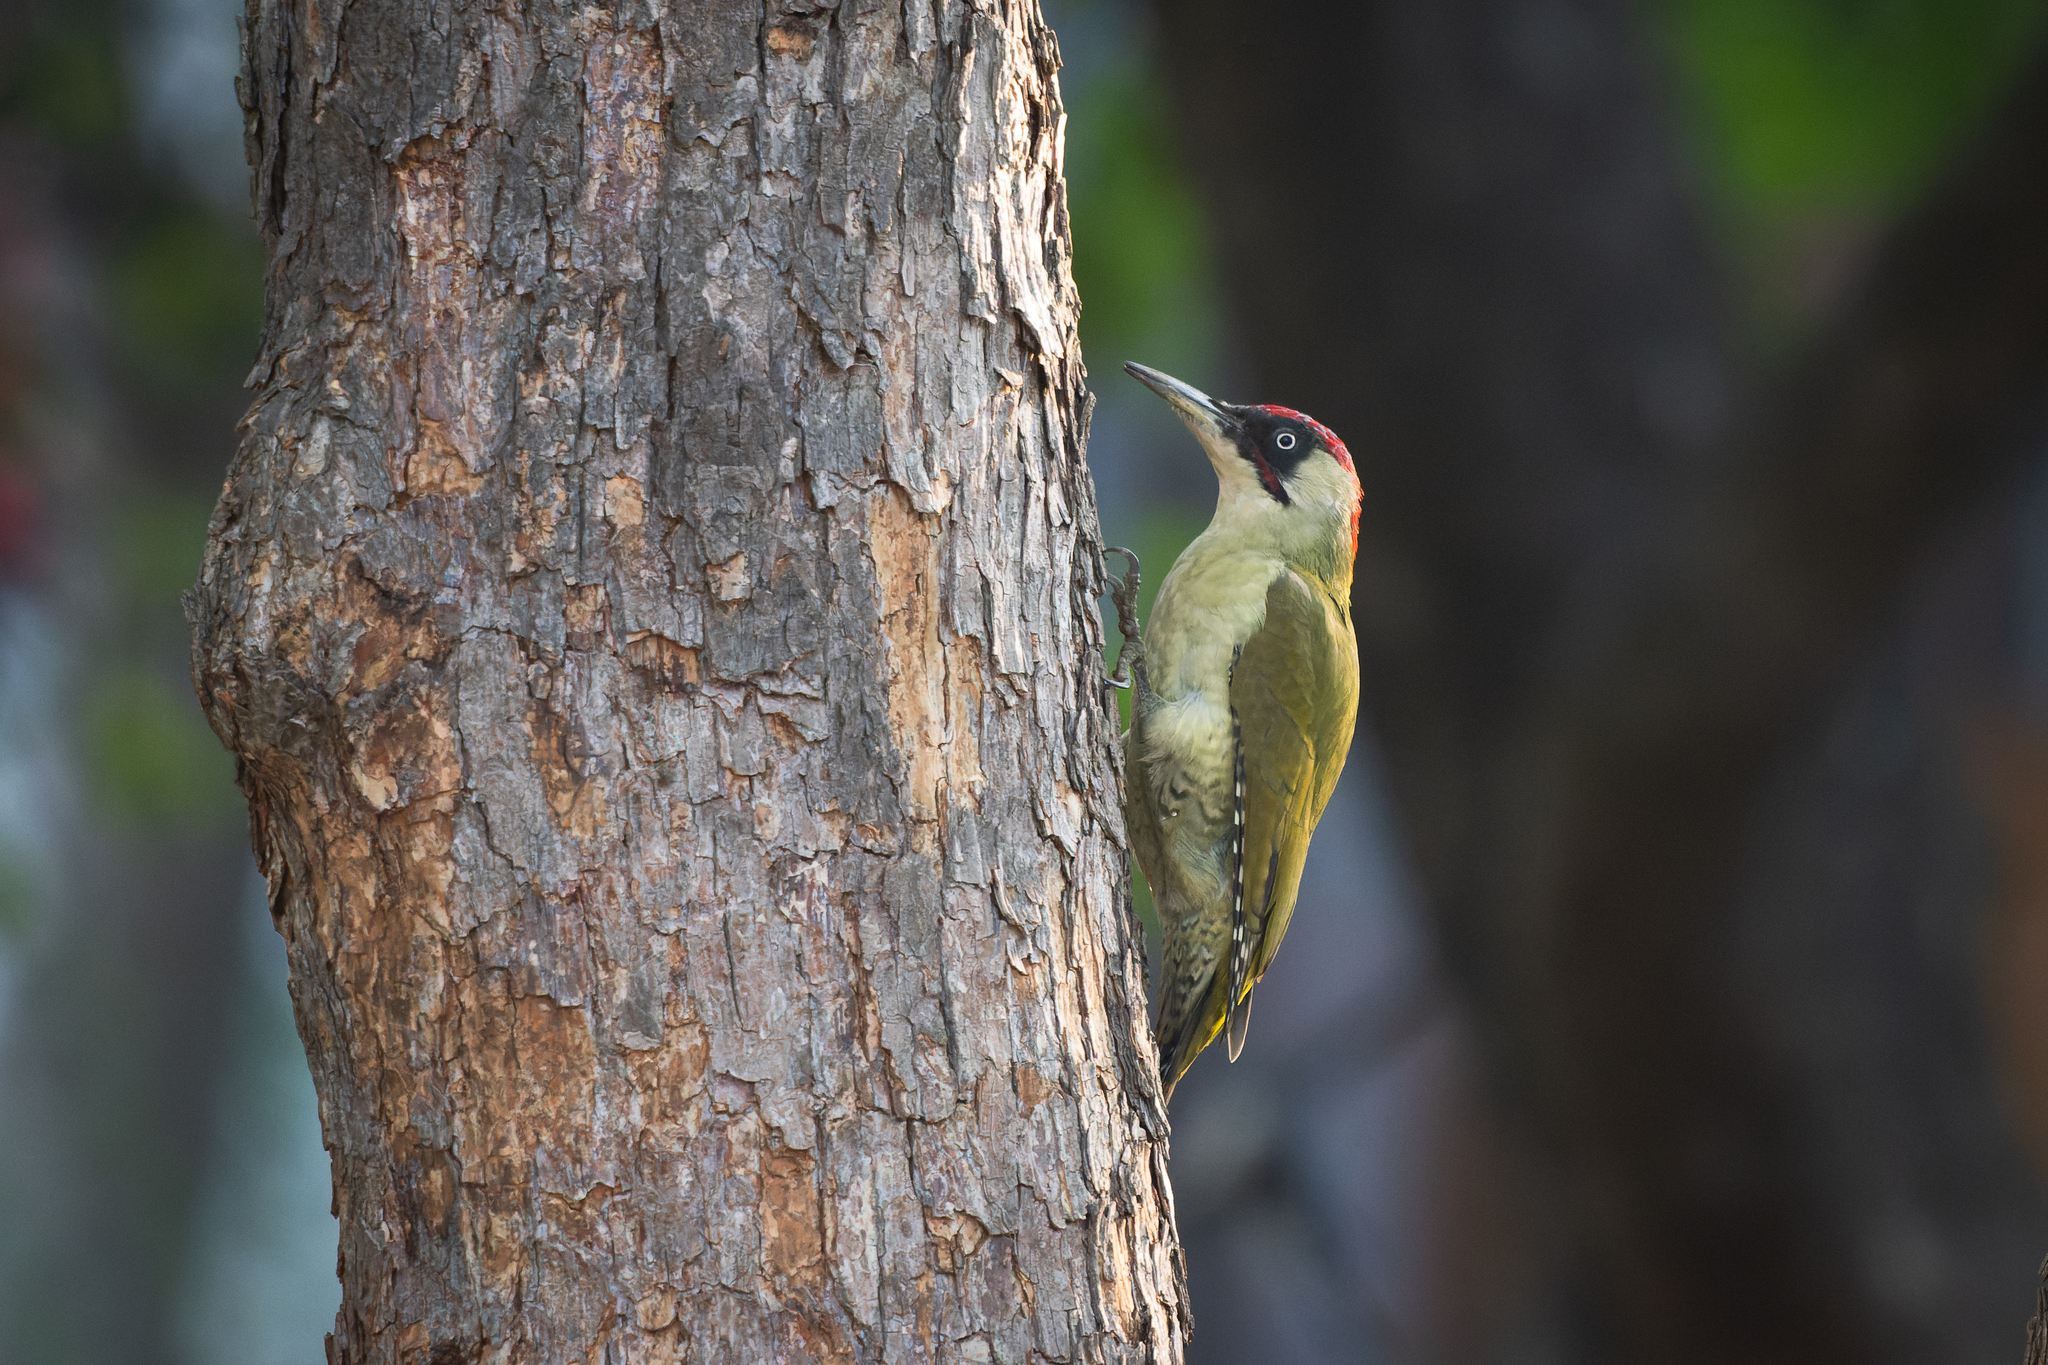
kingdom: Animalia
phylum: Chordata
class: Aves
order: Piciformes
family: Picidae
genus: Picus
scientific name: Picus viridis
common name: European green woodpecker
